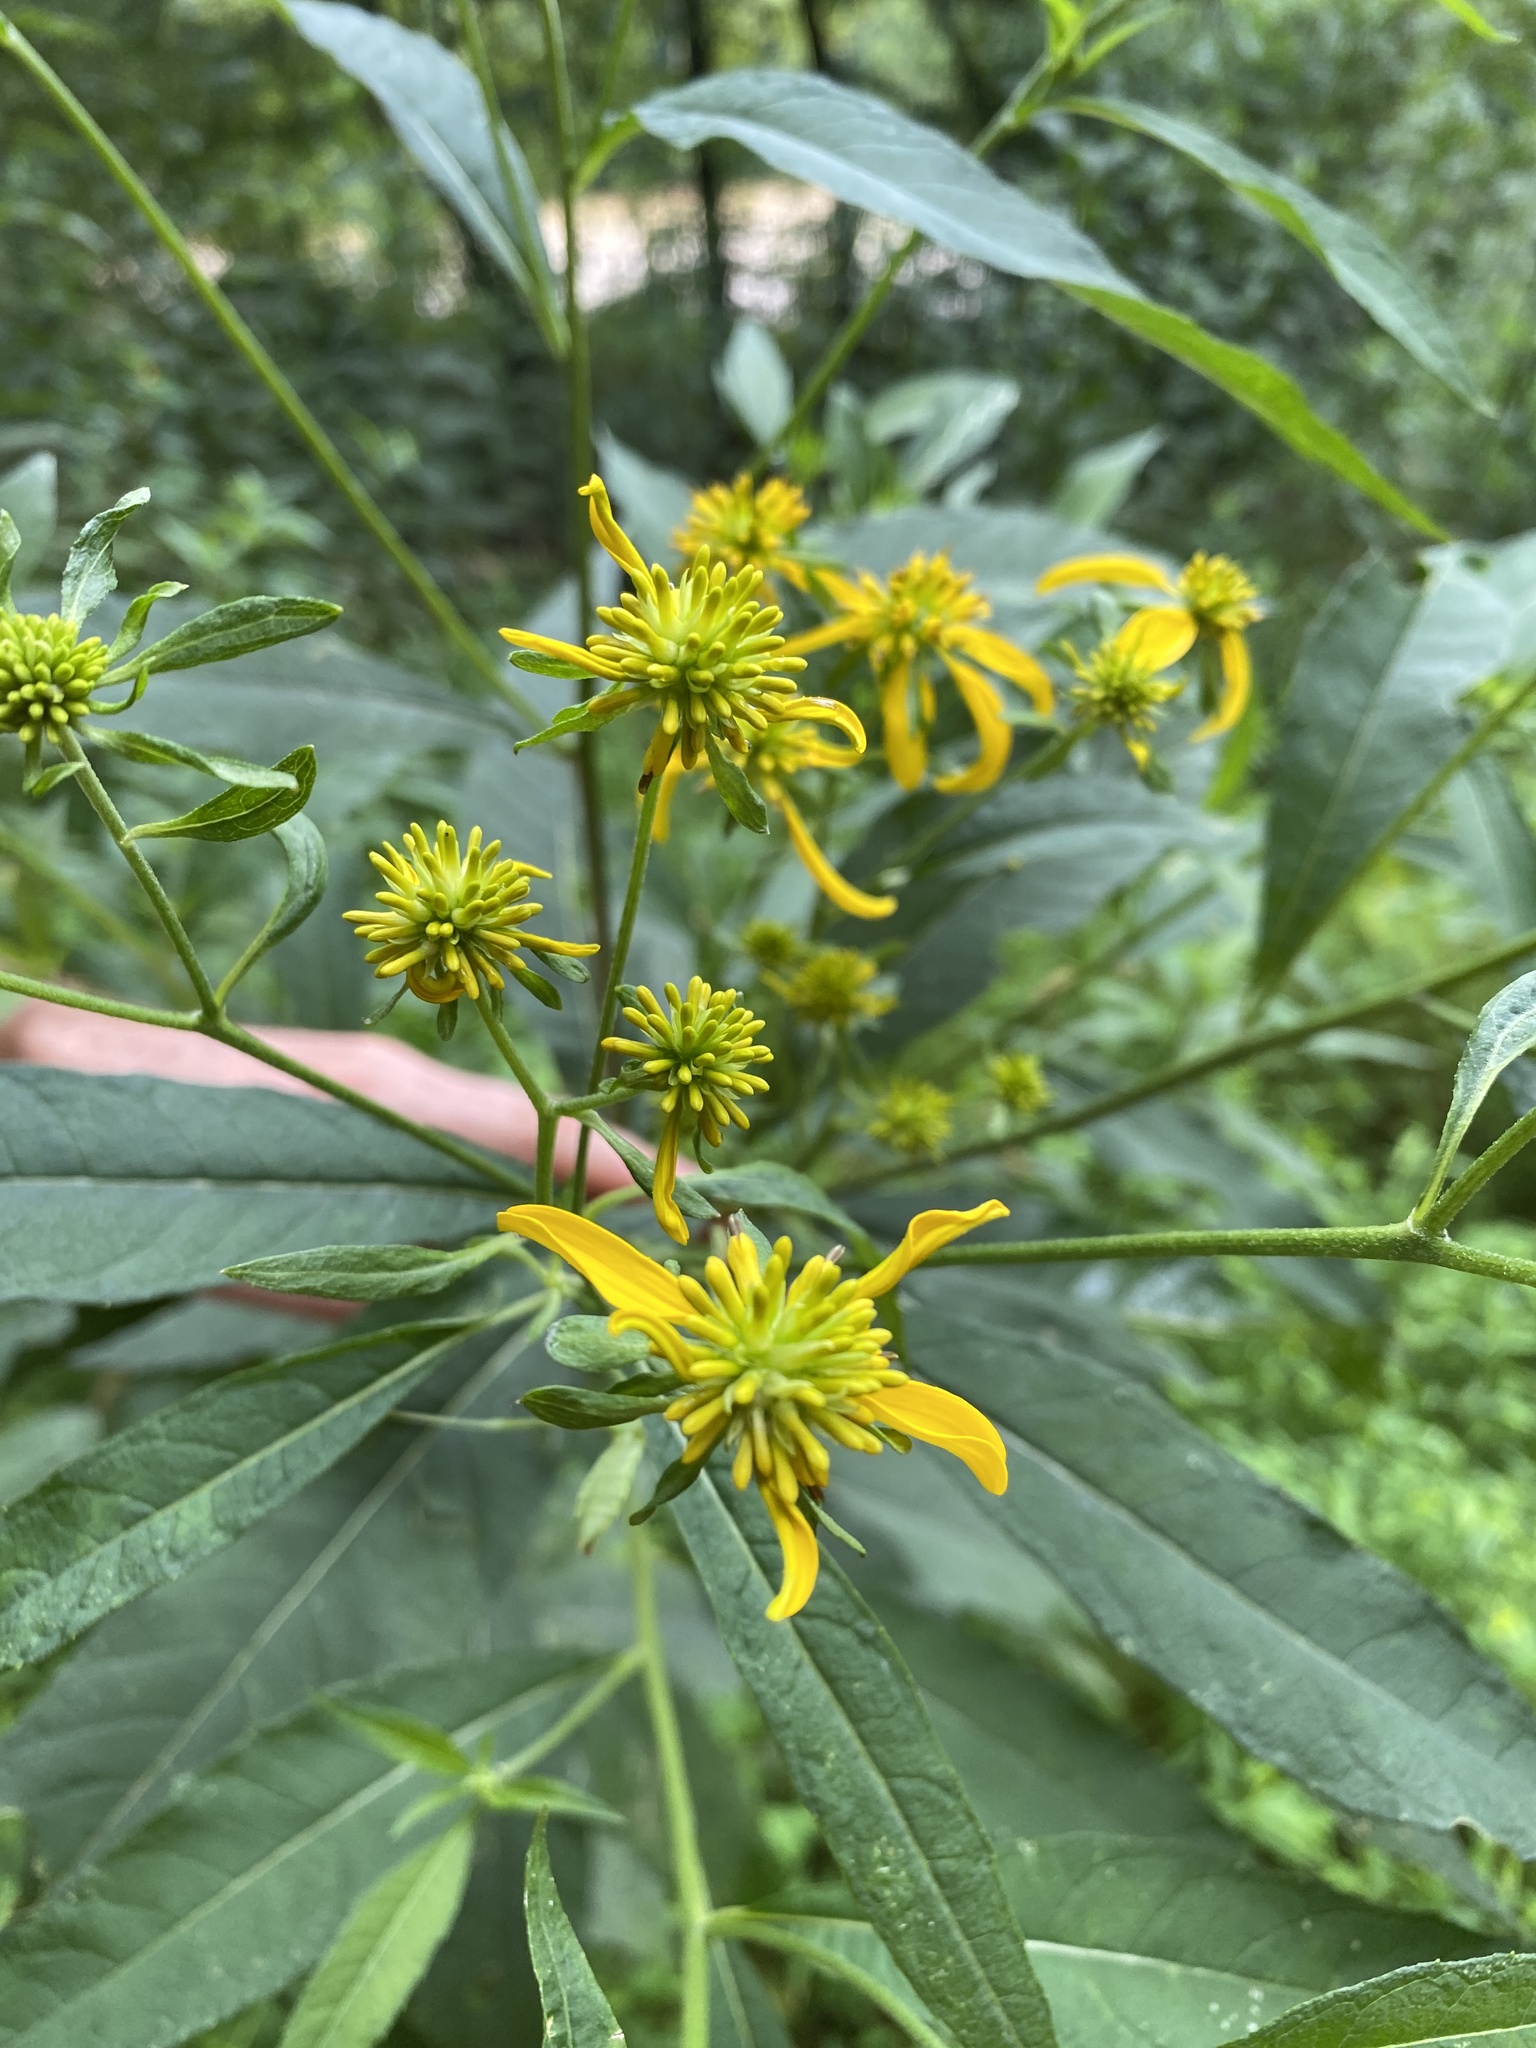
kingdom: Plantae
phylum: Tracheophyta
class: Magnoliopsida
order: Asterales
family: Asteraceae
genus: Verbesina
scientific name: Verbesina alternifolia
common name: Wingstem
